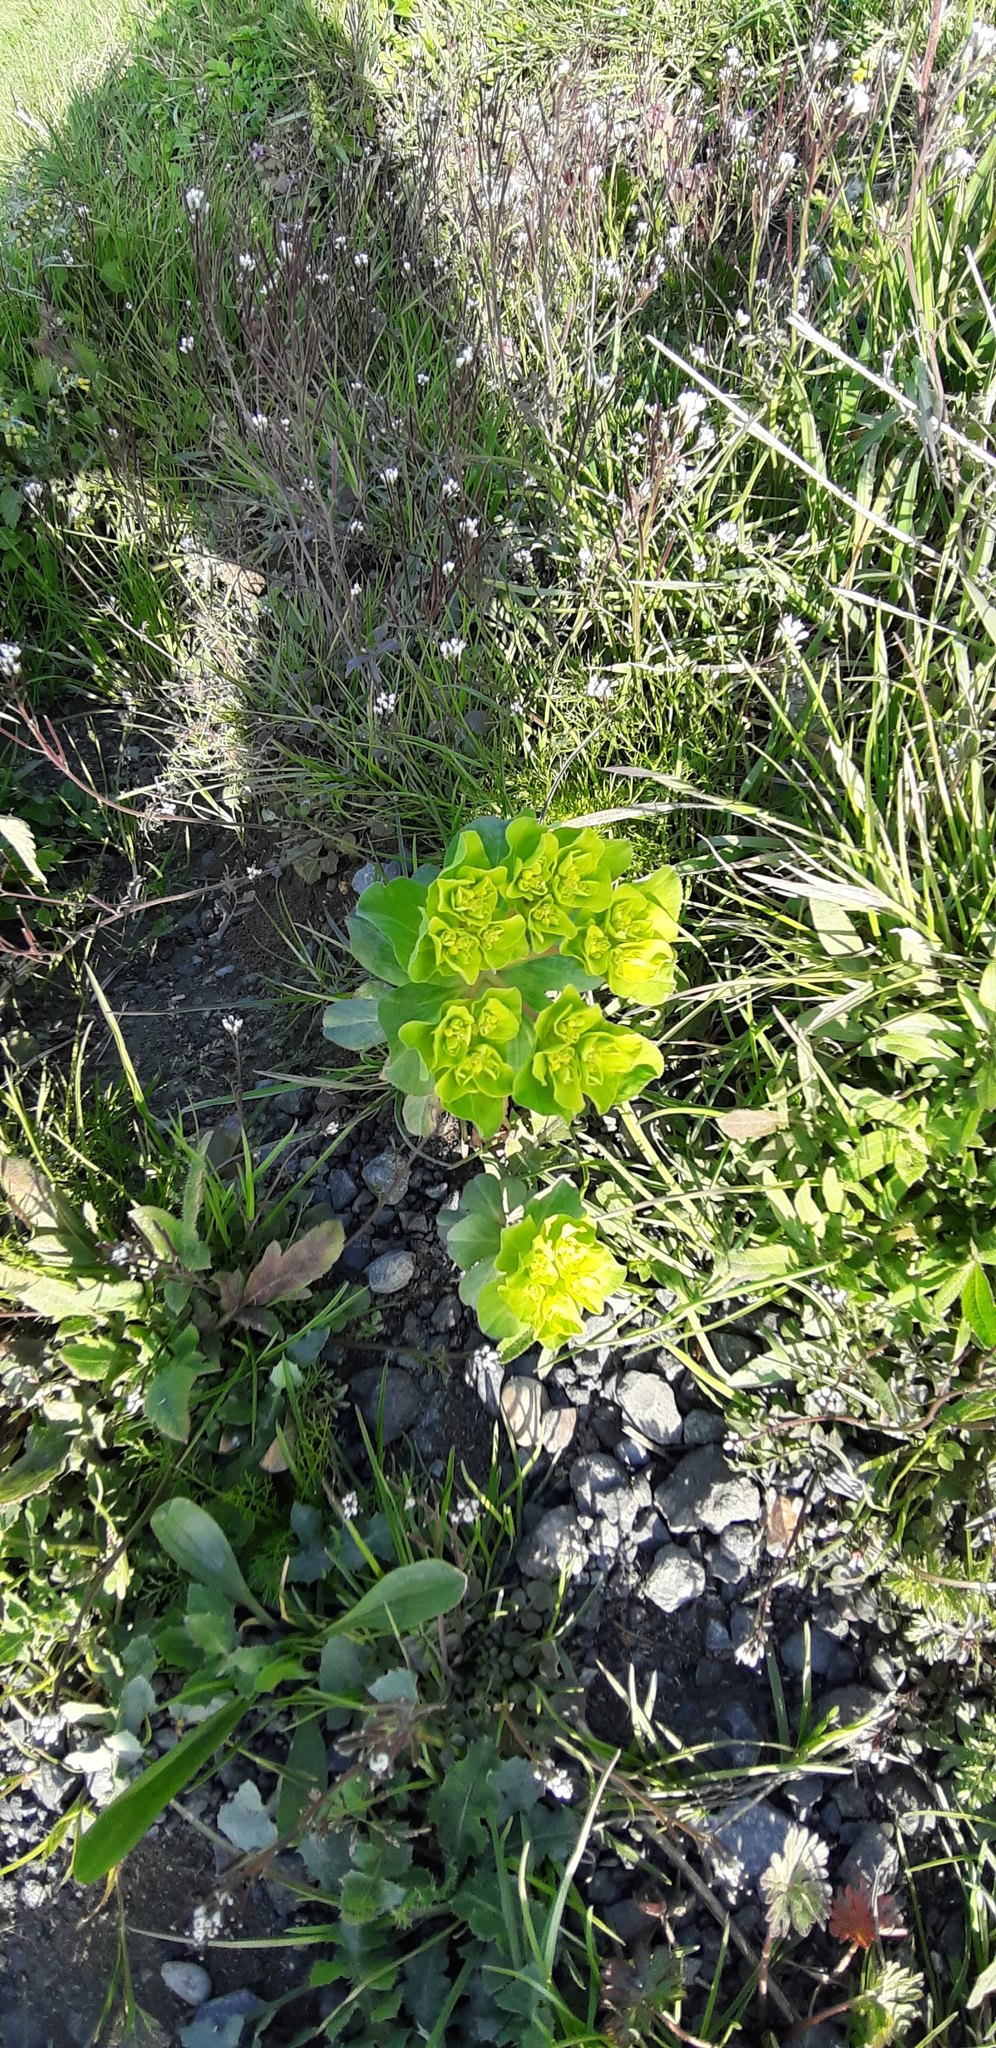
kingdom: Plantae
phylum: Tracheophyta
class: Magnoliopsida
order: Malpighiales
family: Euphorbiaceae
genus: Euphorbia
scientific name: Euphorbia helioscopia
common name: Sun spurge
